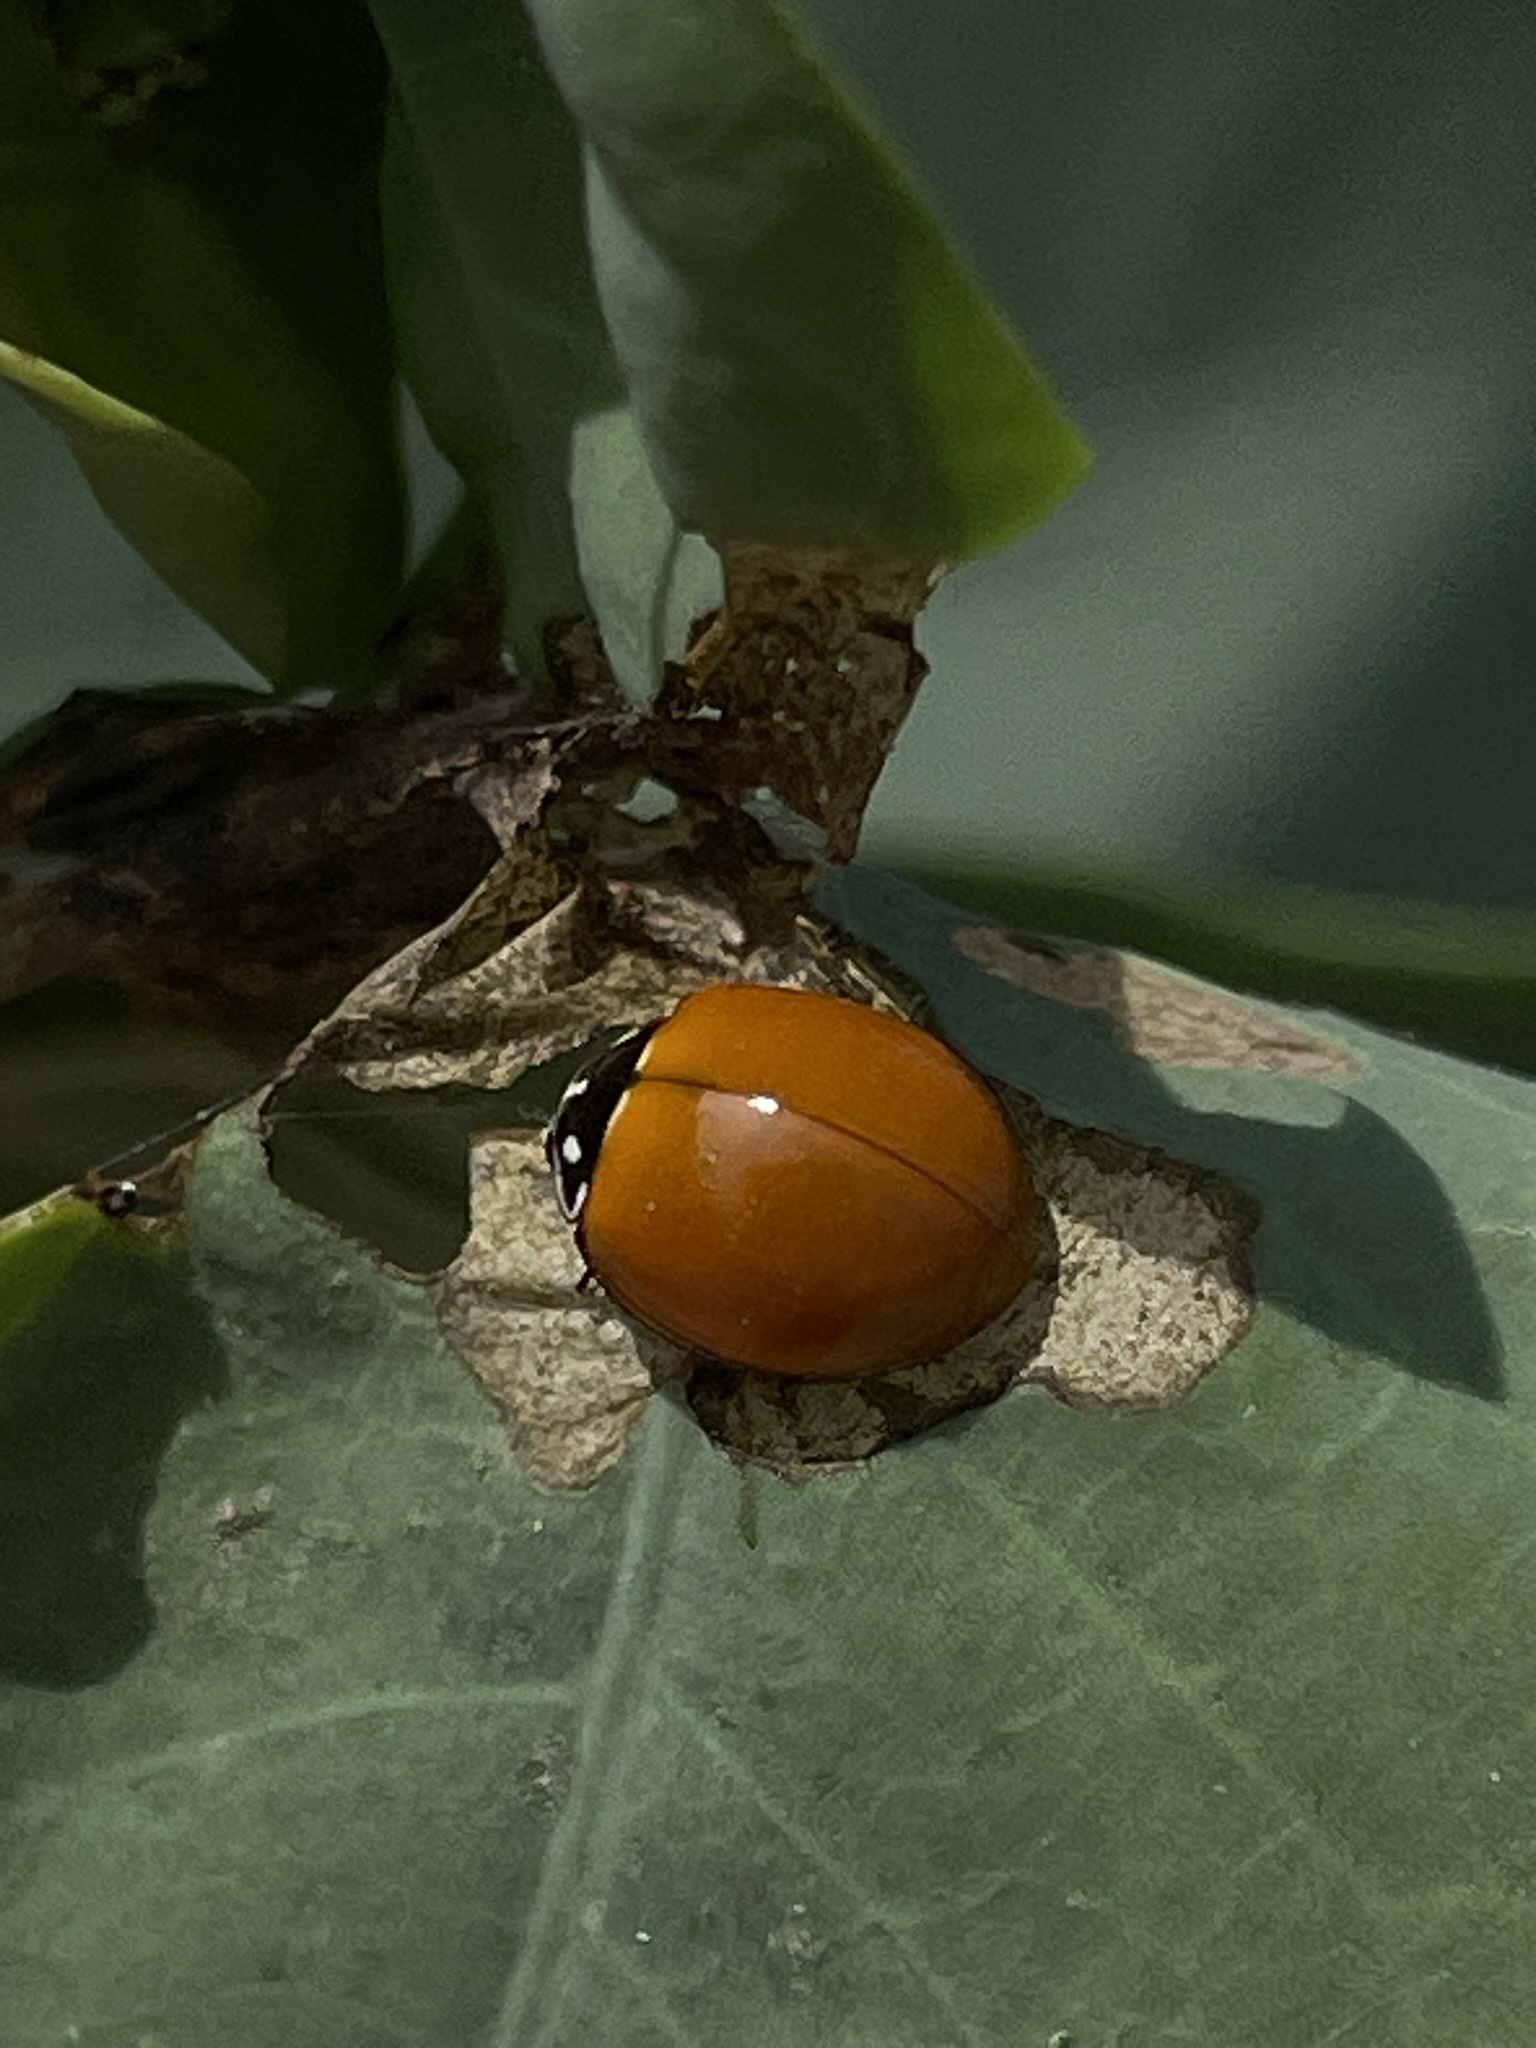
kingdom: Animalia
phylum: Arthropoda
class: Insecta
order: Coleoptera
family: Coccinellidae
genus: Cycloneda
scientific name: Cycloneda sanguinea
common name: Ladybird beetle
